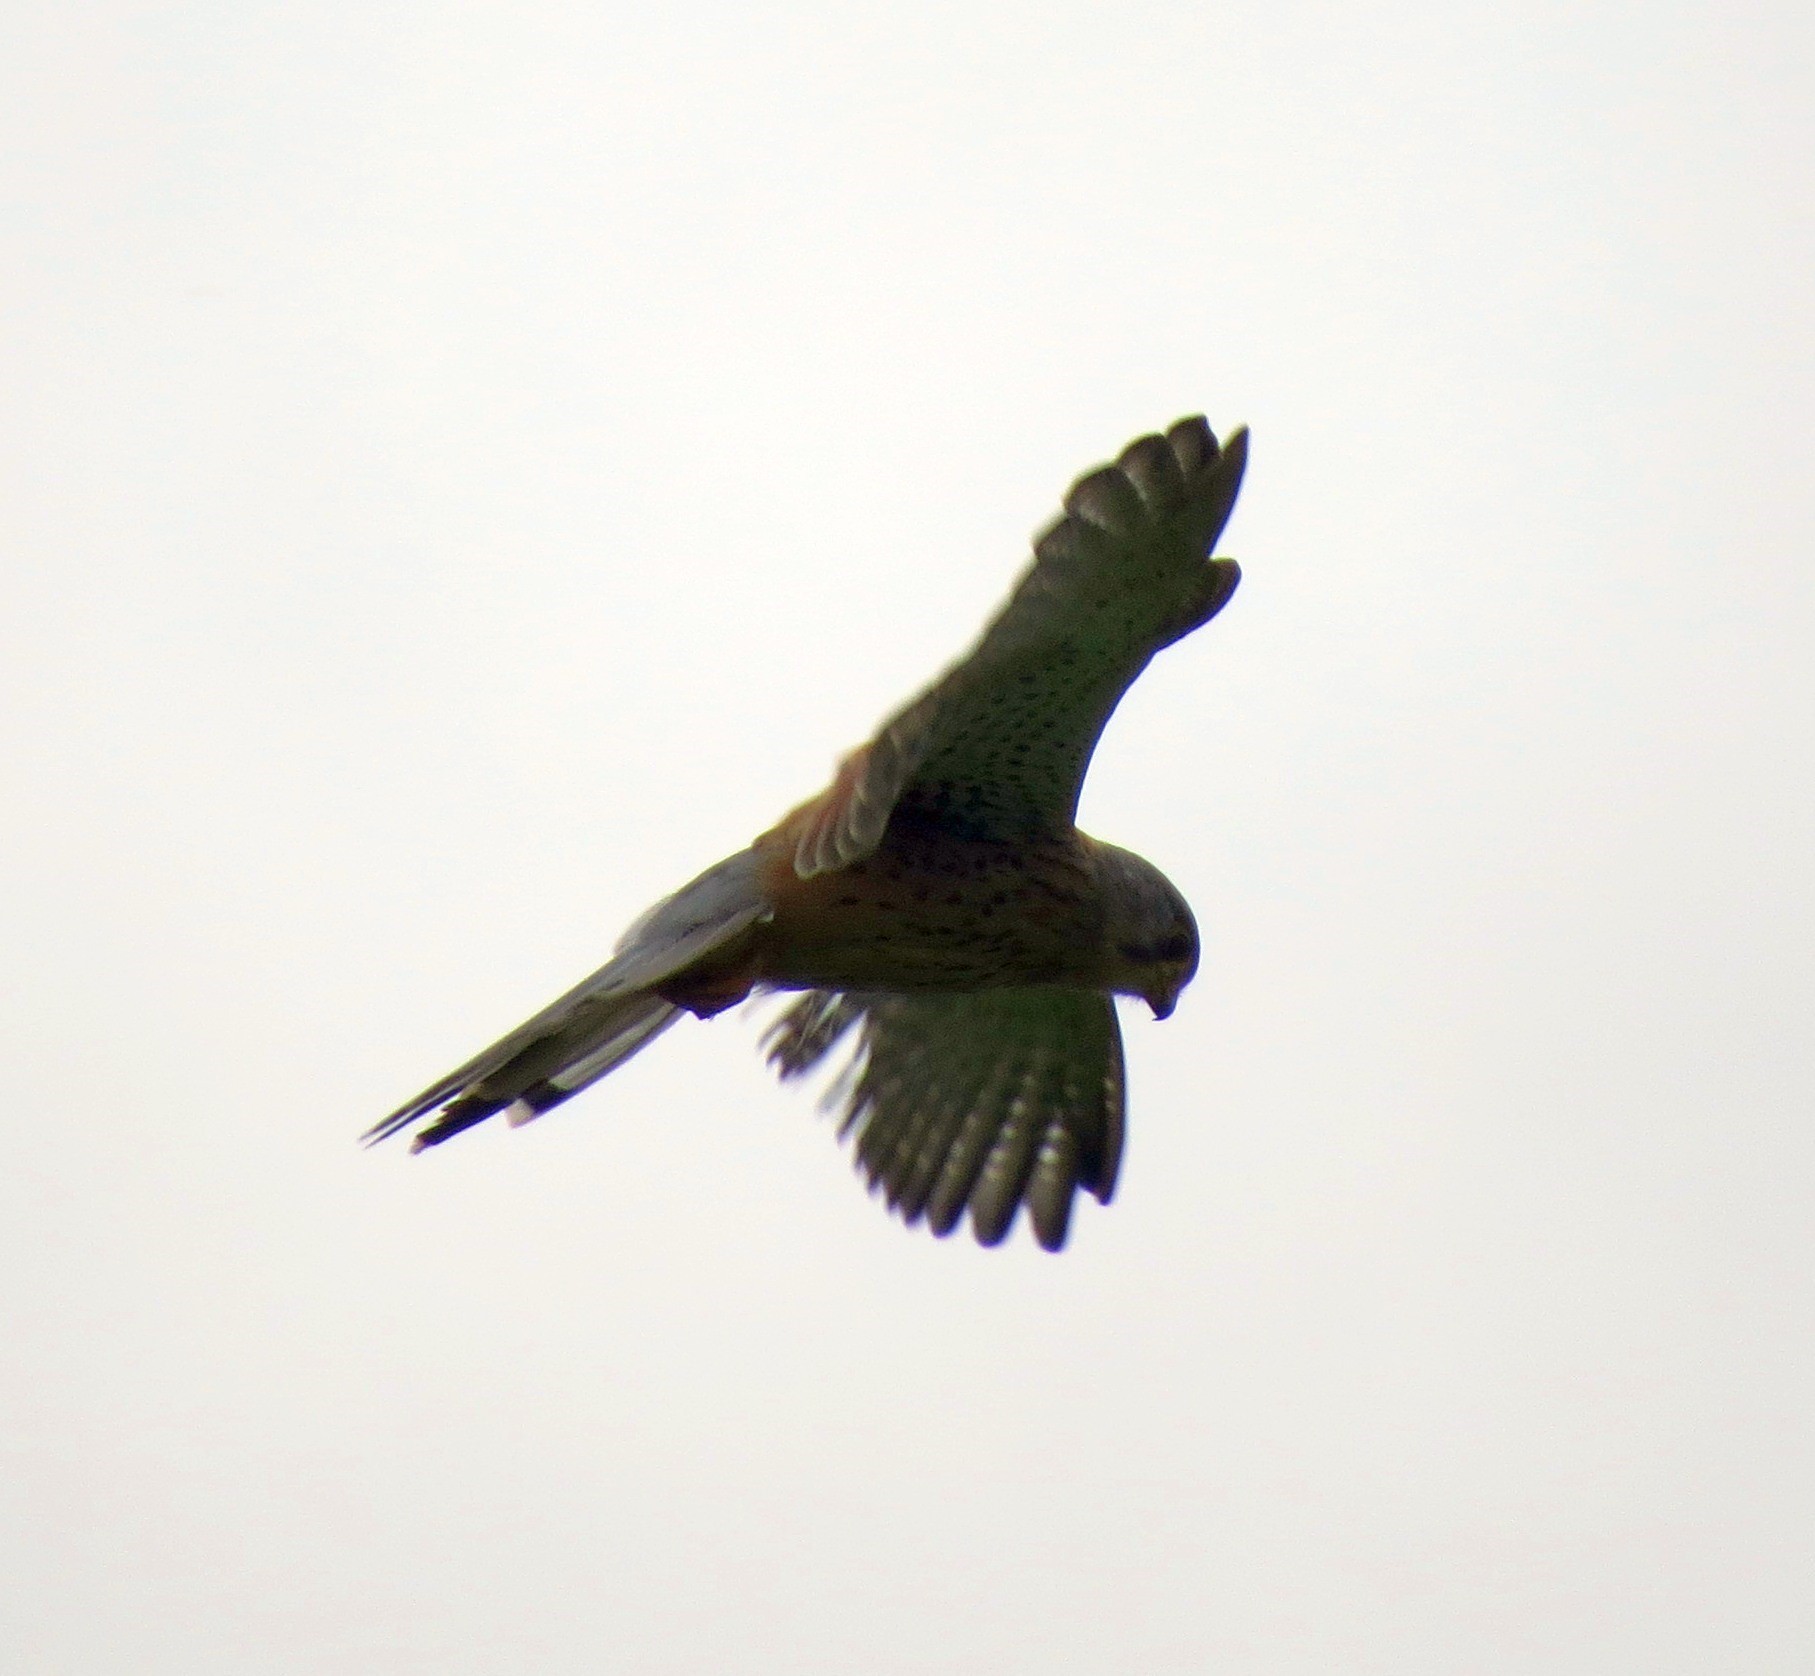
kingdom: Animalia
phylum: Chordata
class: Aves
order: Falconiformes
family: Falconidae
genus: Falco
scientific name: Falco tinnunculus
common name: Common kestrel
